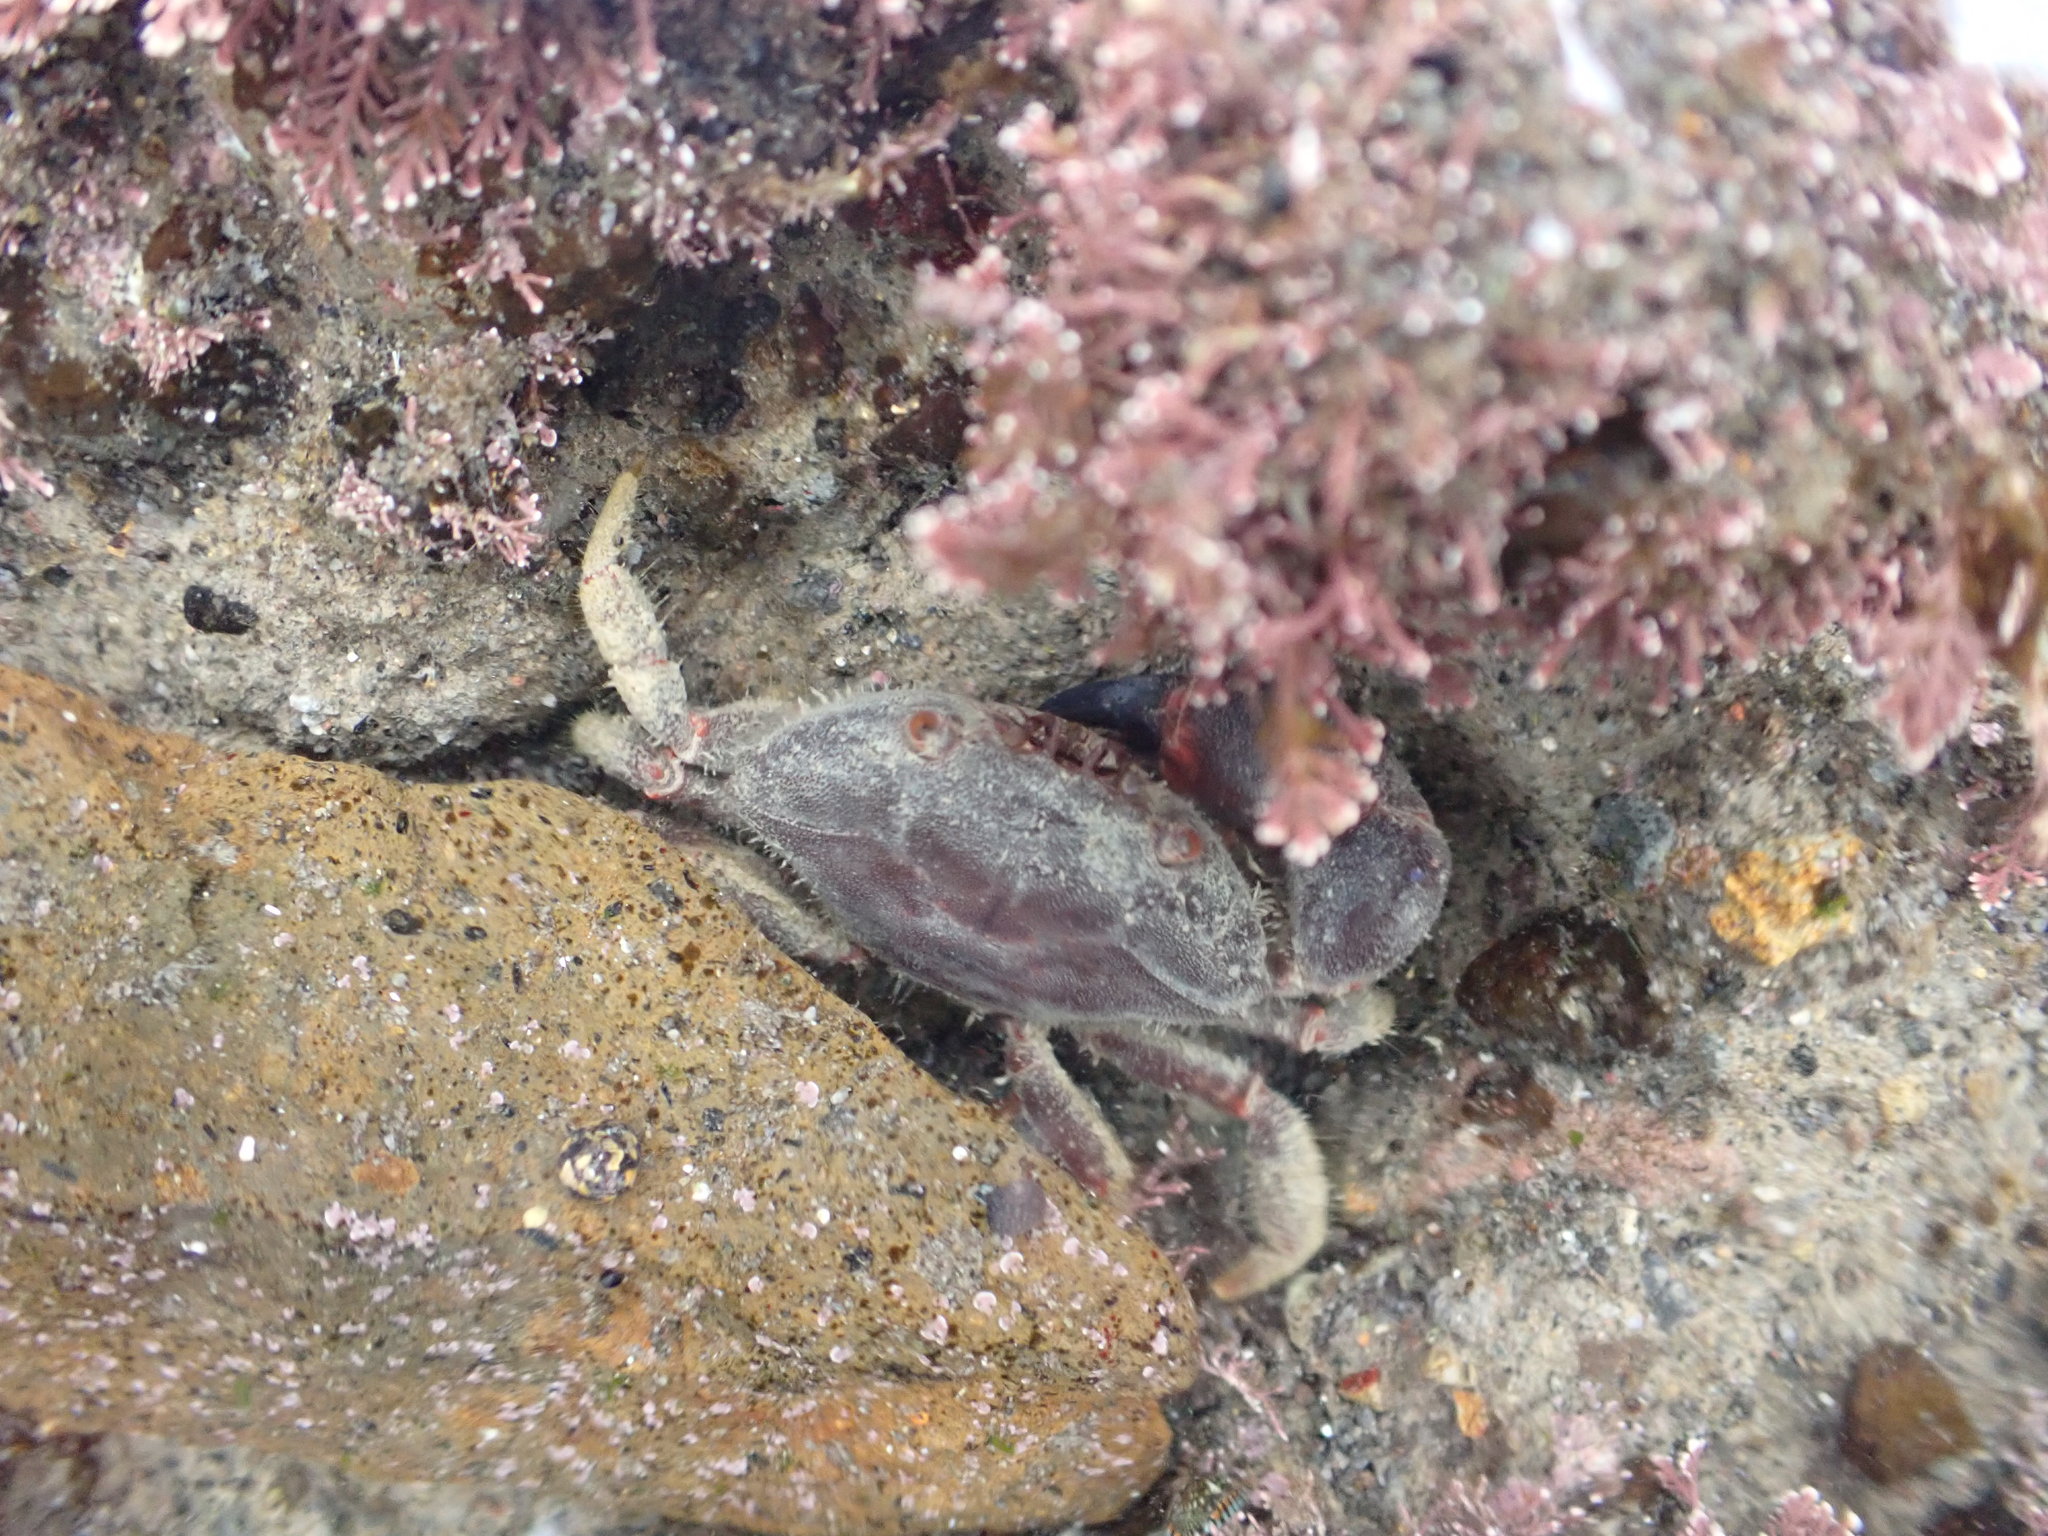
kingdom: Animalia
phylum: Arthropoda
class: Malacostraca
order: Decapoda
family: Oziidae
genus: Ozius
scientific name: Ozius deplanatus
